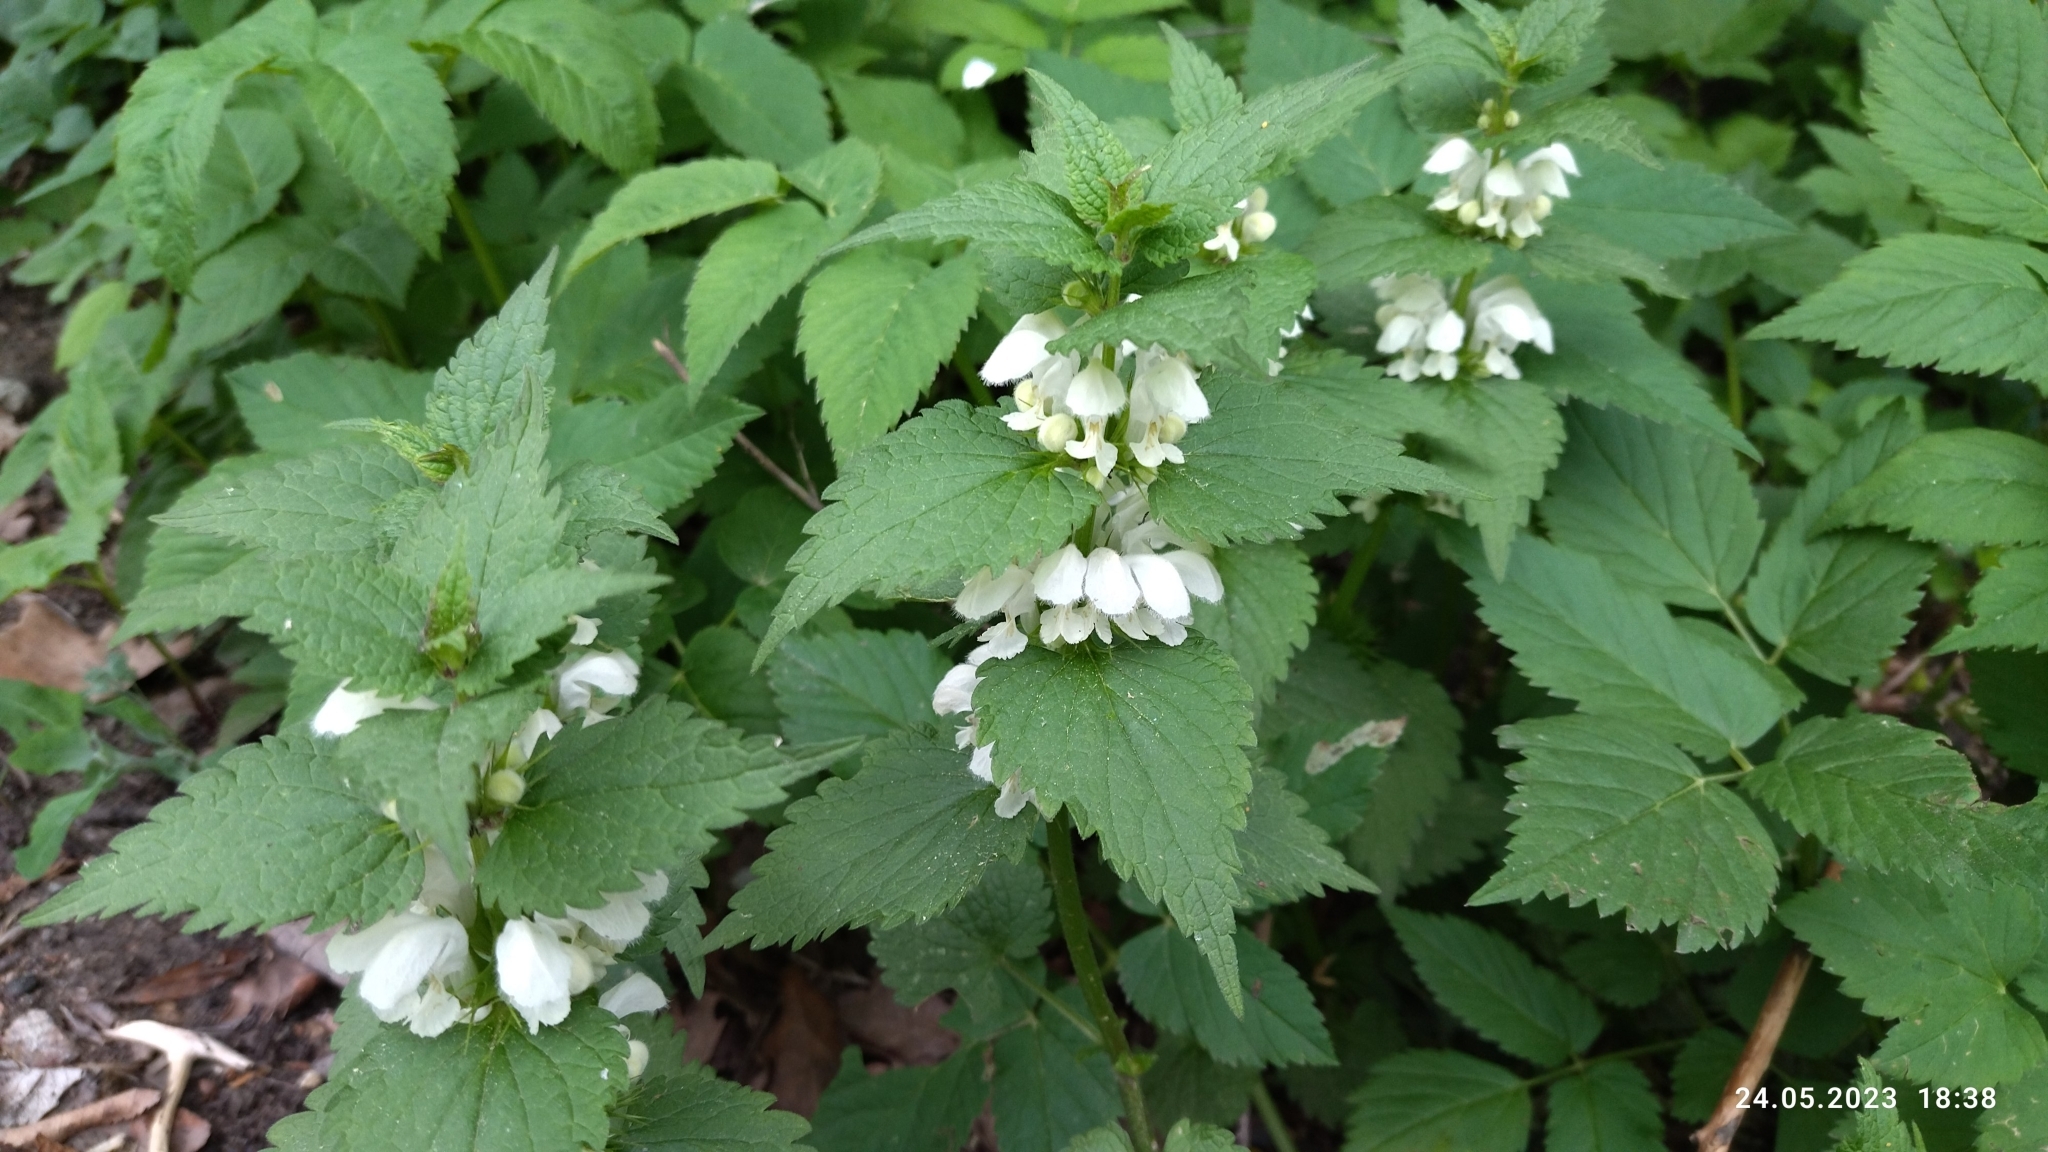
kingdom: Plantae
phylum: Tracheophyta
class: Magnoliopsida
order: Lamiales
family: Lamiaceae
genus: Lamium
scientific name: Lamium album
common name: White dead-nettle
